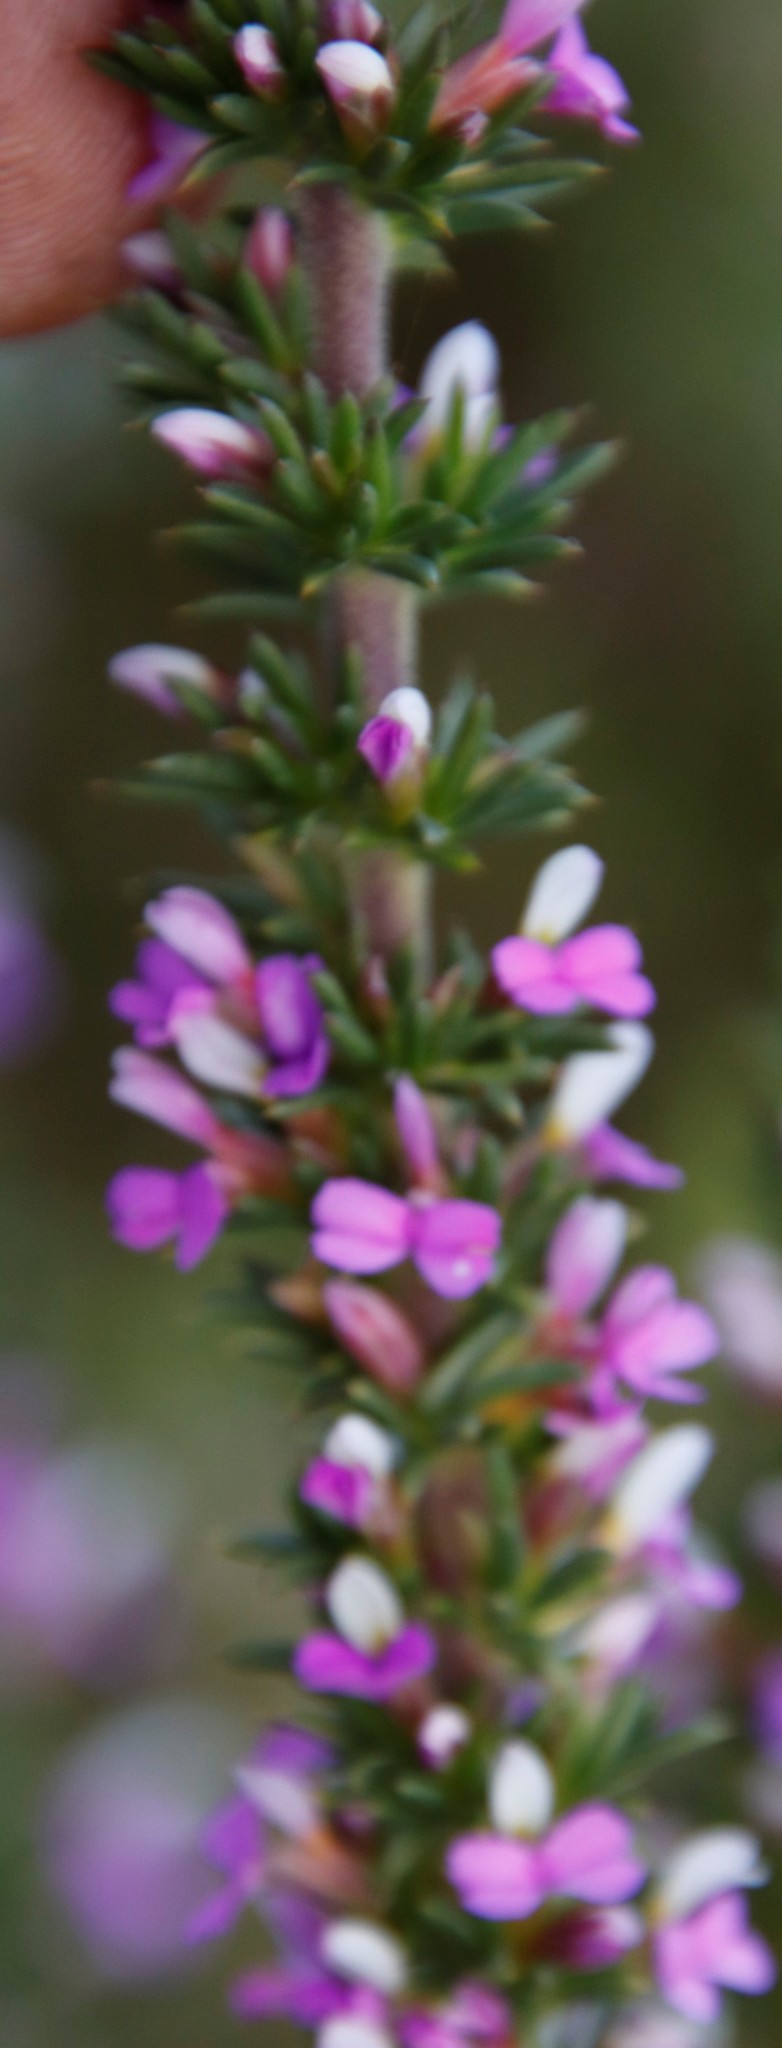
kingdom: Plantae
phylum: Tracheophyta
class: Magnoliopsida
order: Fabales
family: Polygalaceae
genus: Muraltia
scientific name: Muraltia heisteria
